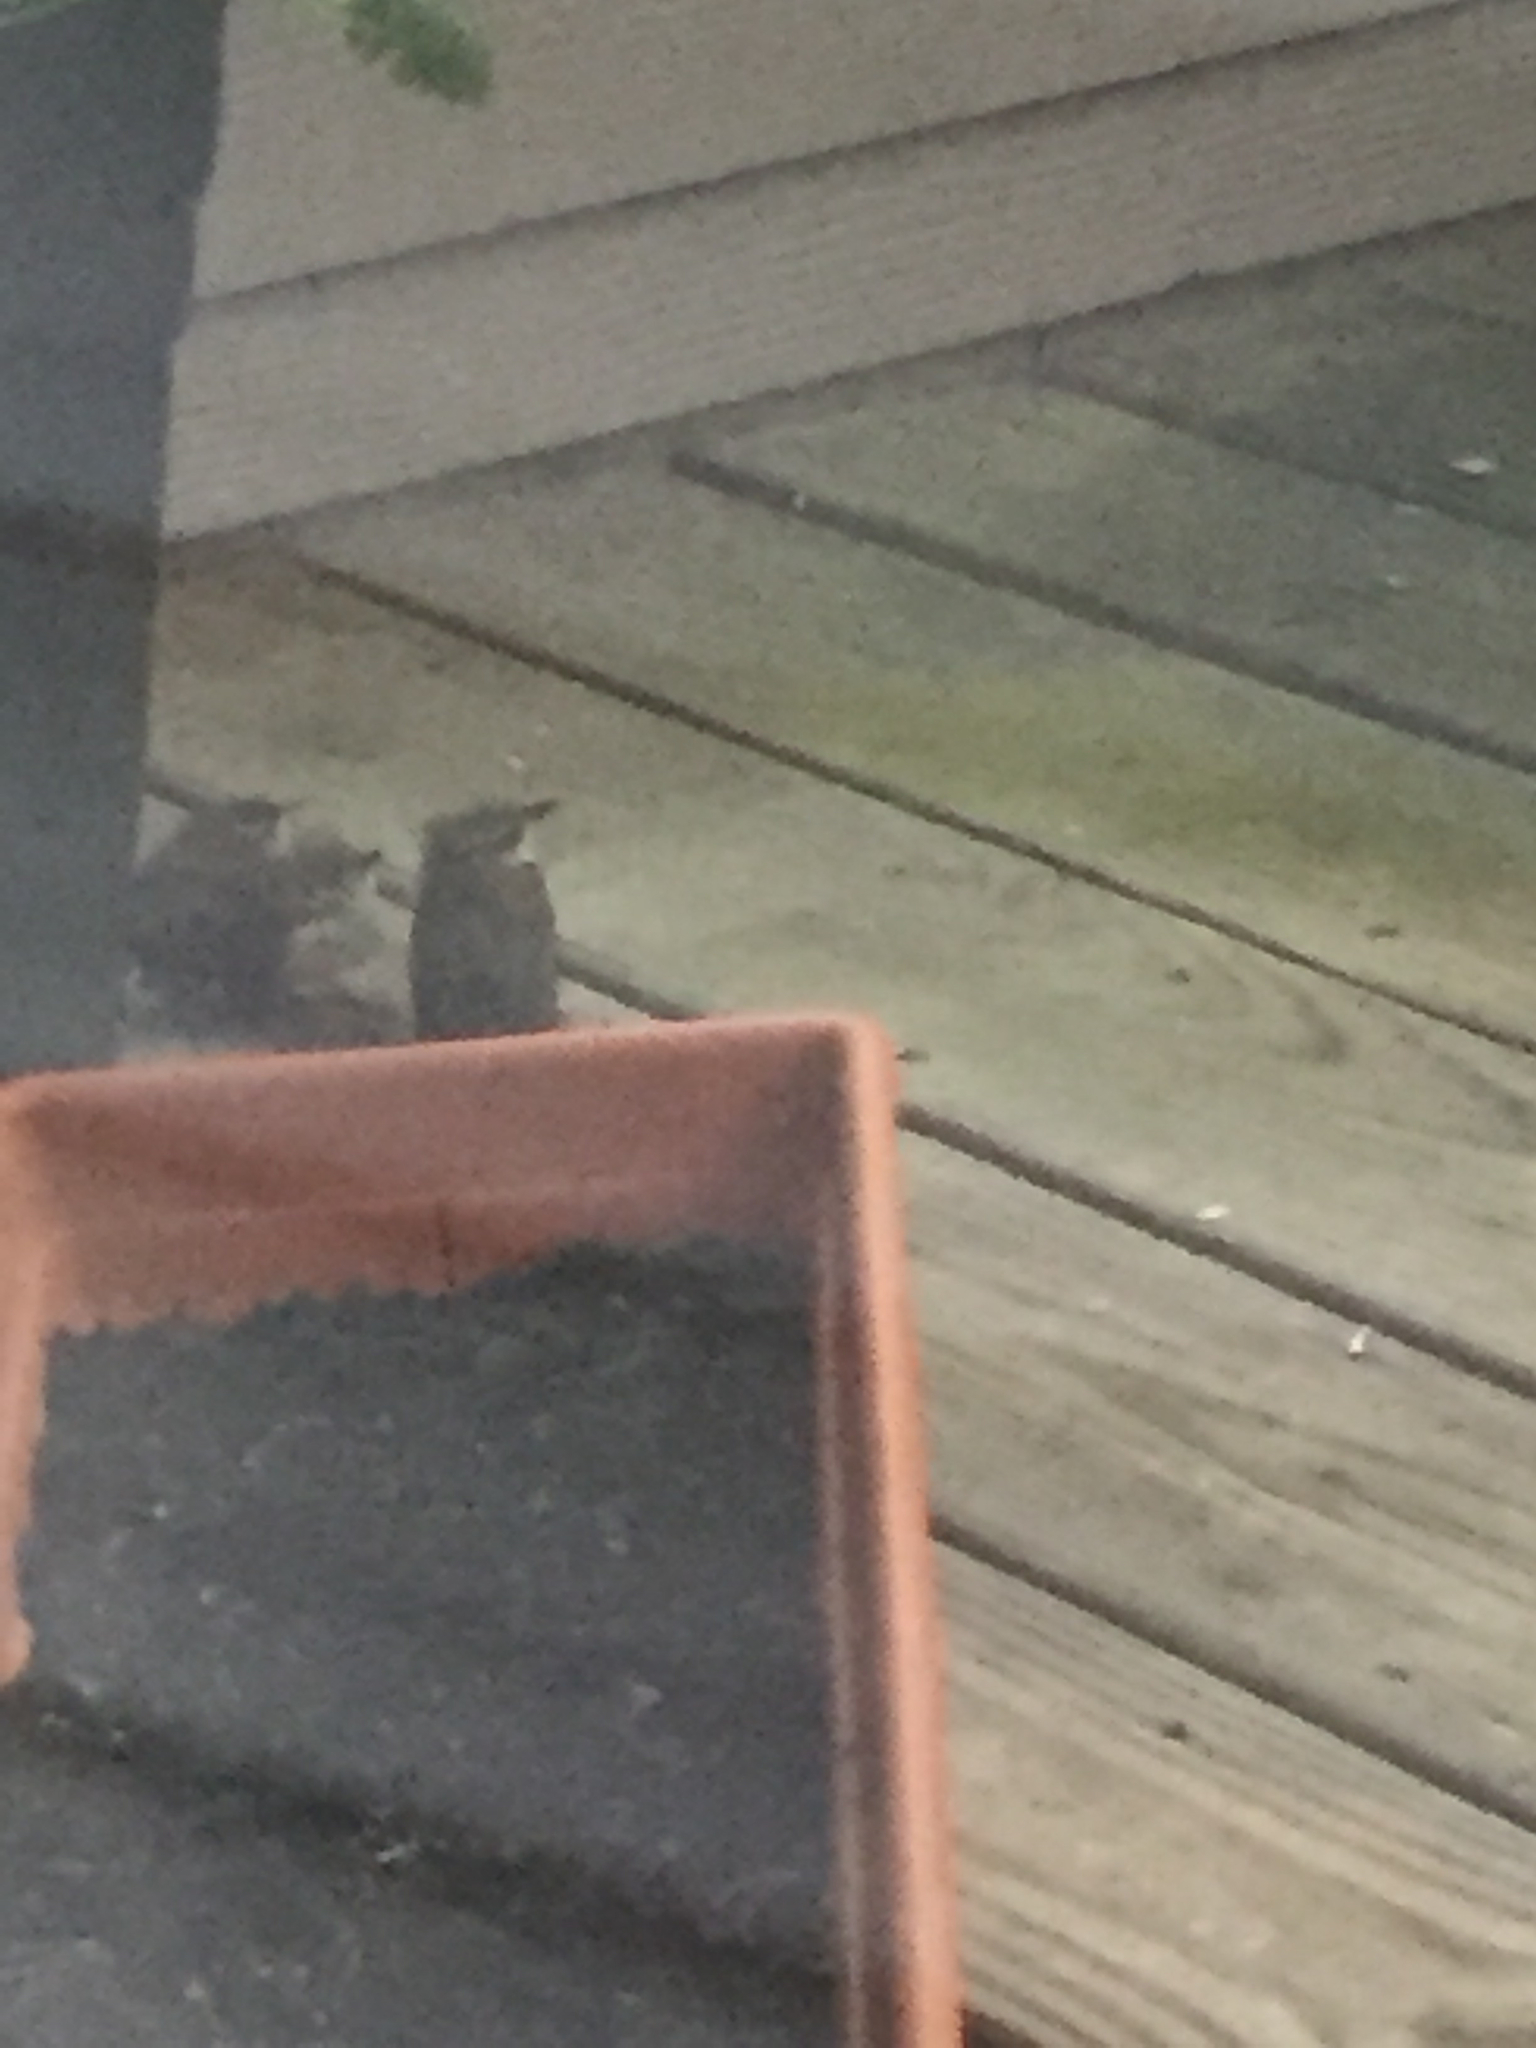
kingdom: Animalia
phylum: Chordata
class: Aves
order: Passeriformes
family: Troglodytidae
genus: Thryothorus
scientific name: Thryothorus ludovicianus
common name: Carolina wren
